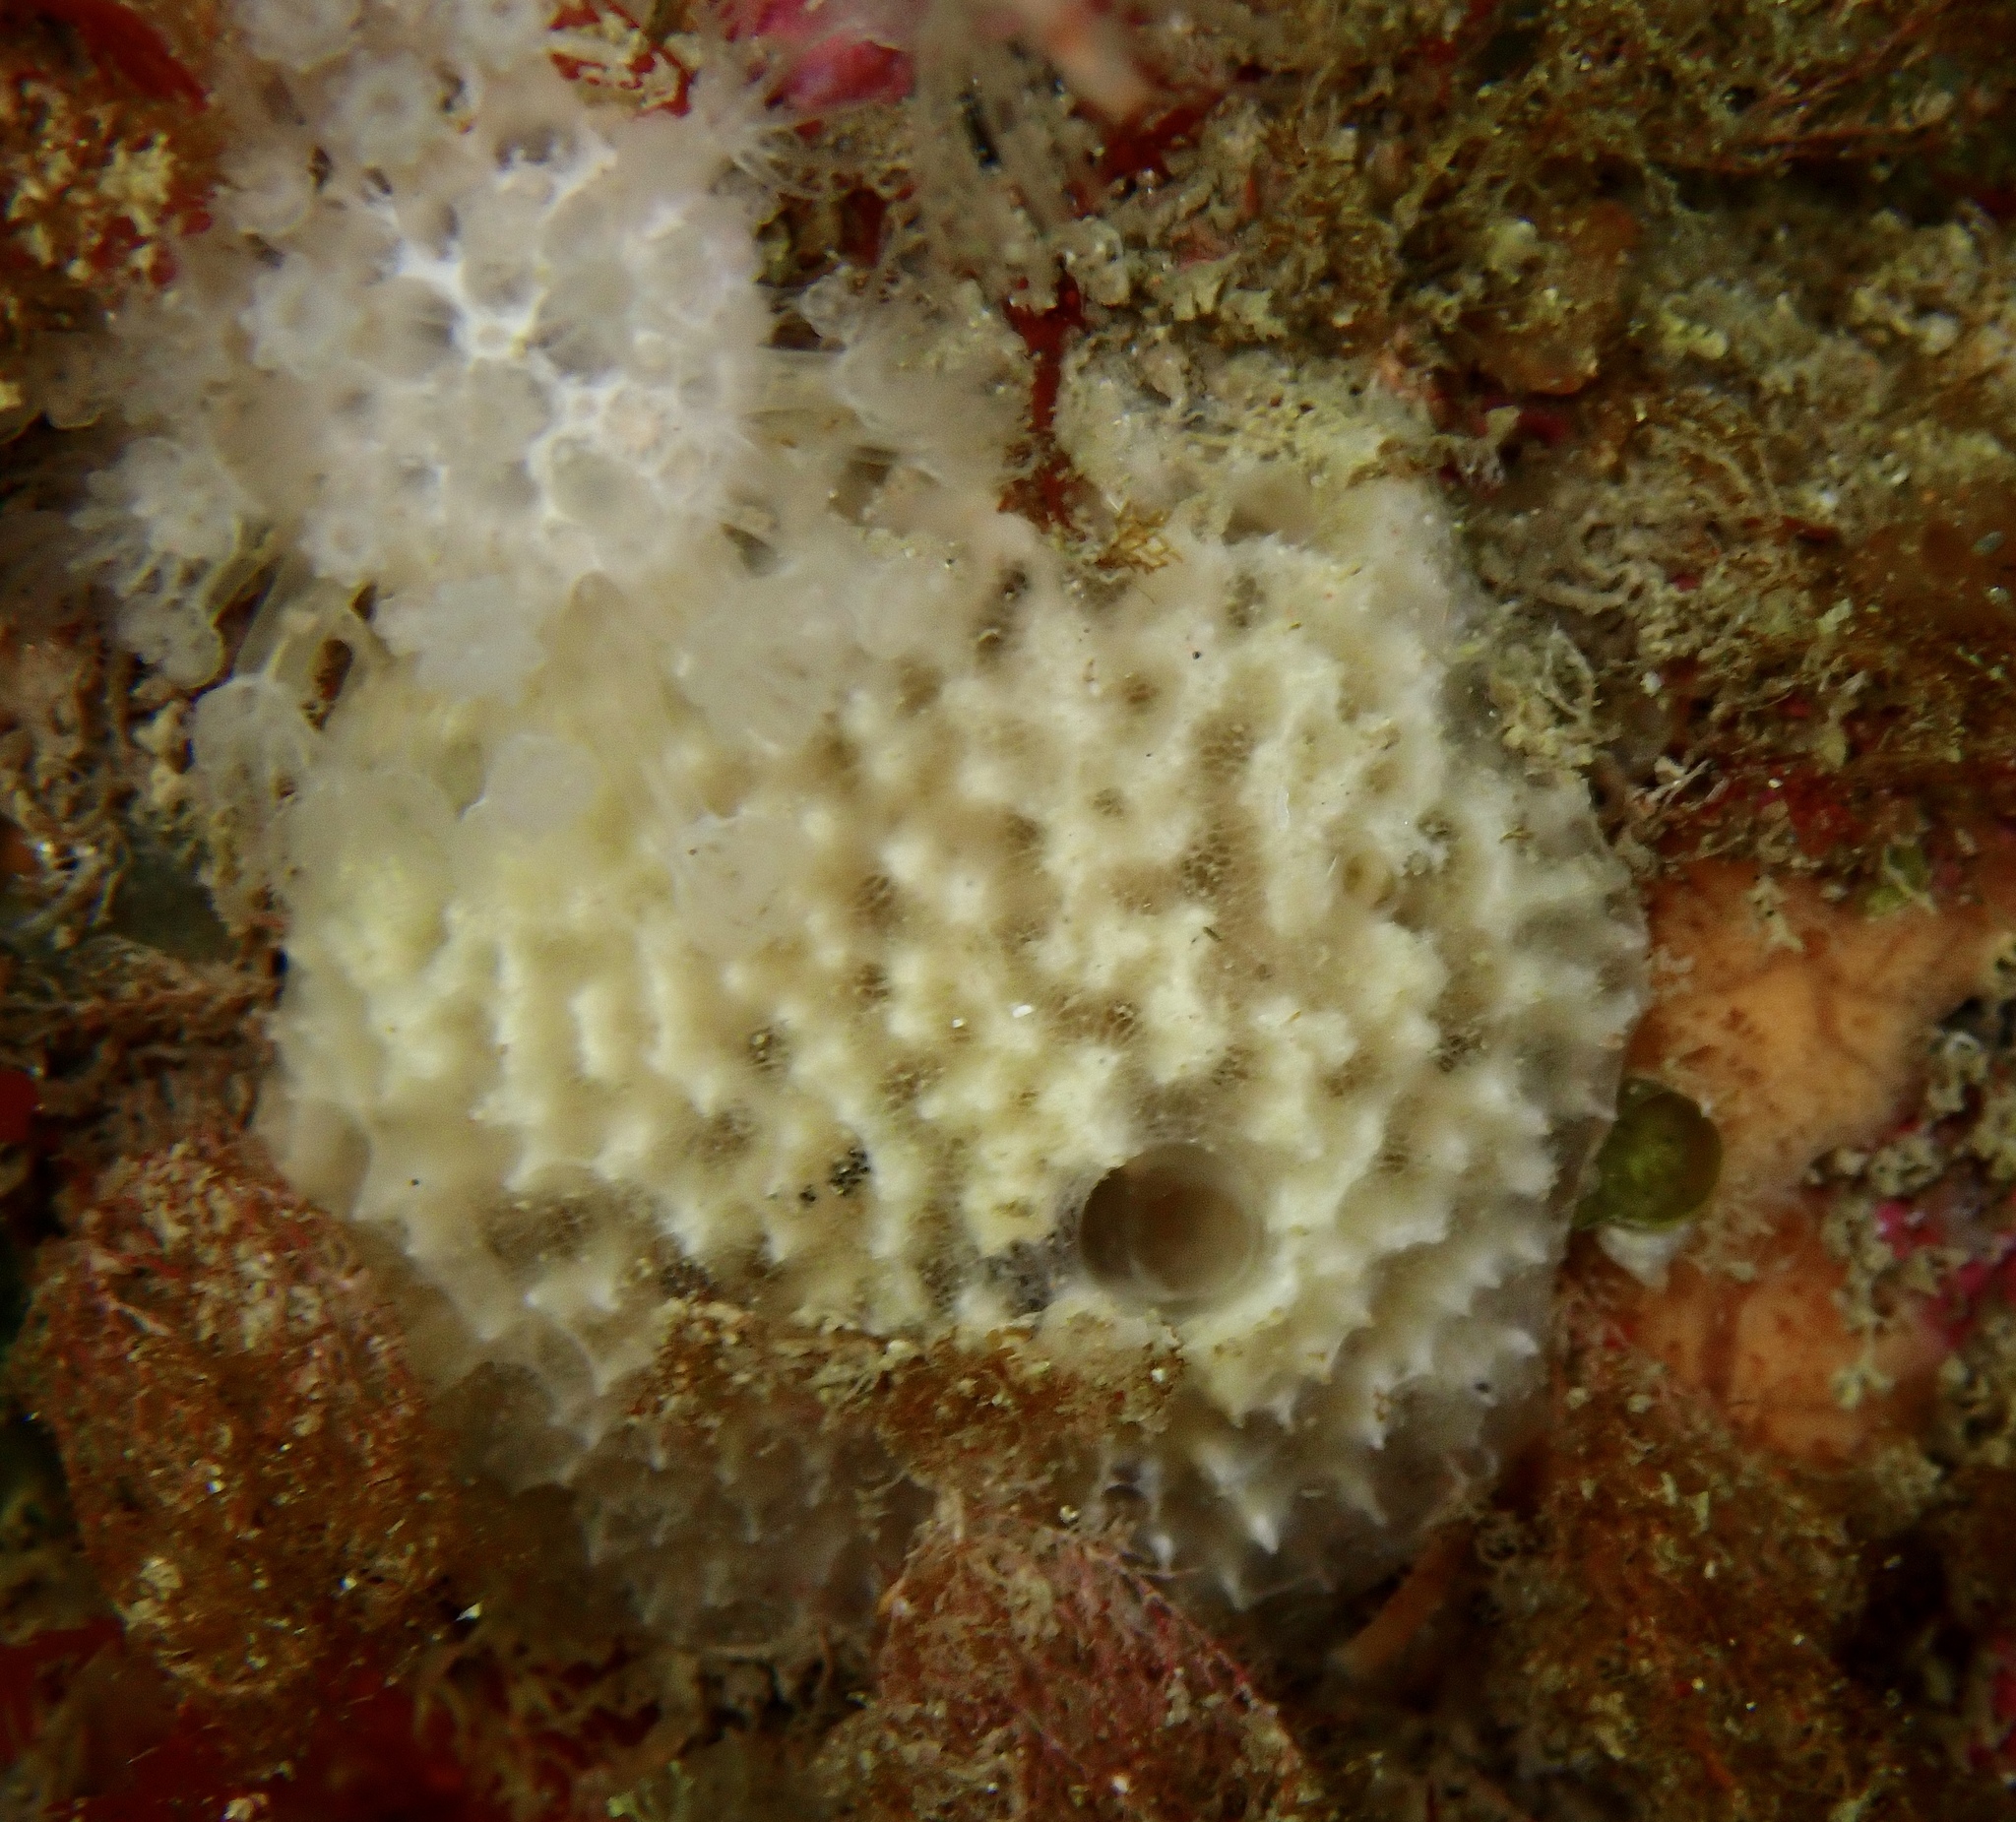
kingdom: Animalia
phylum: Porifera
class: Demospongiae
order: Dictyoceratida
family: Dysideidae
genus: Dysidea
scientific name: Dysidea fragilis
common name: Goosebump sponge
